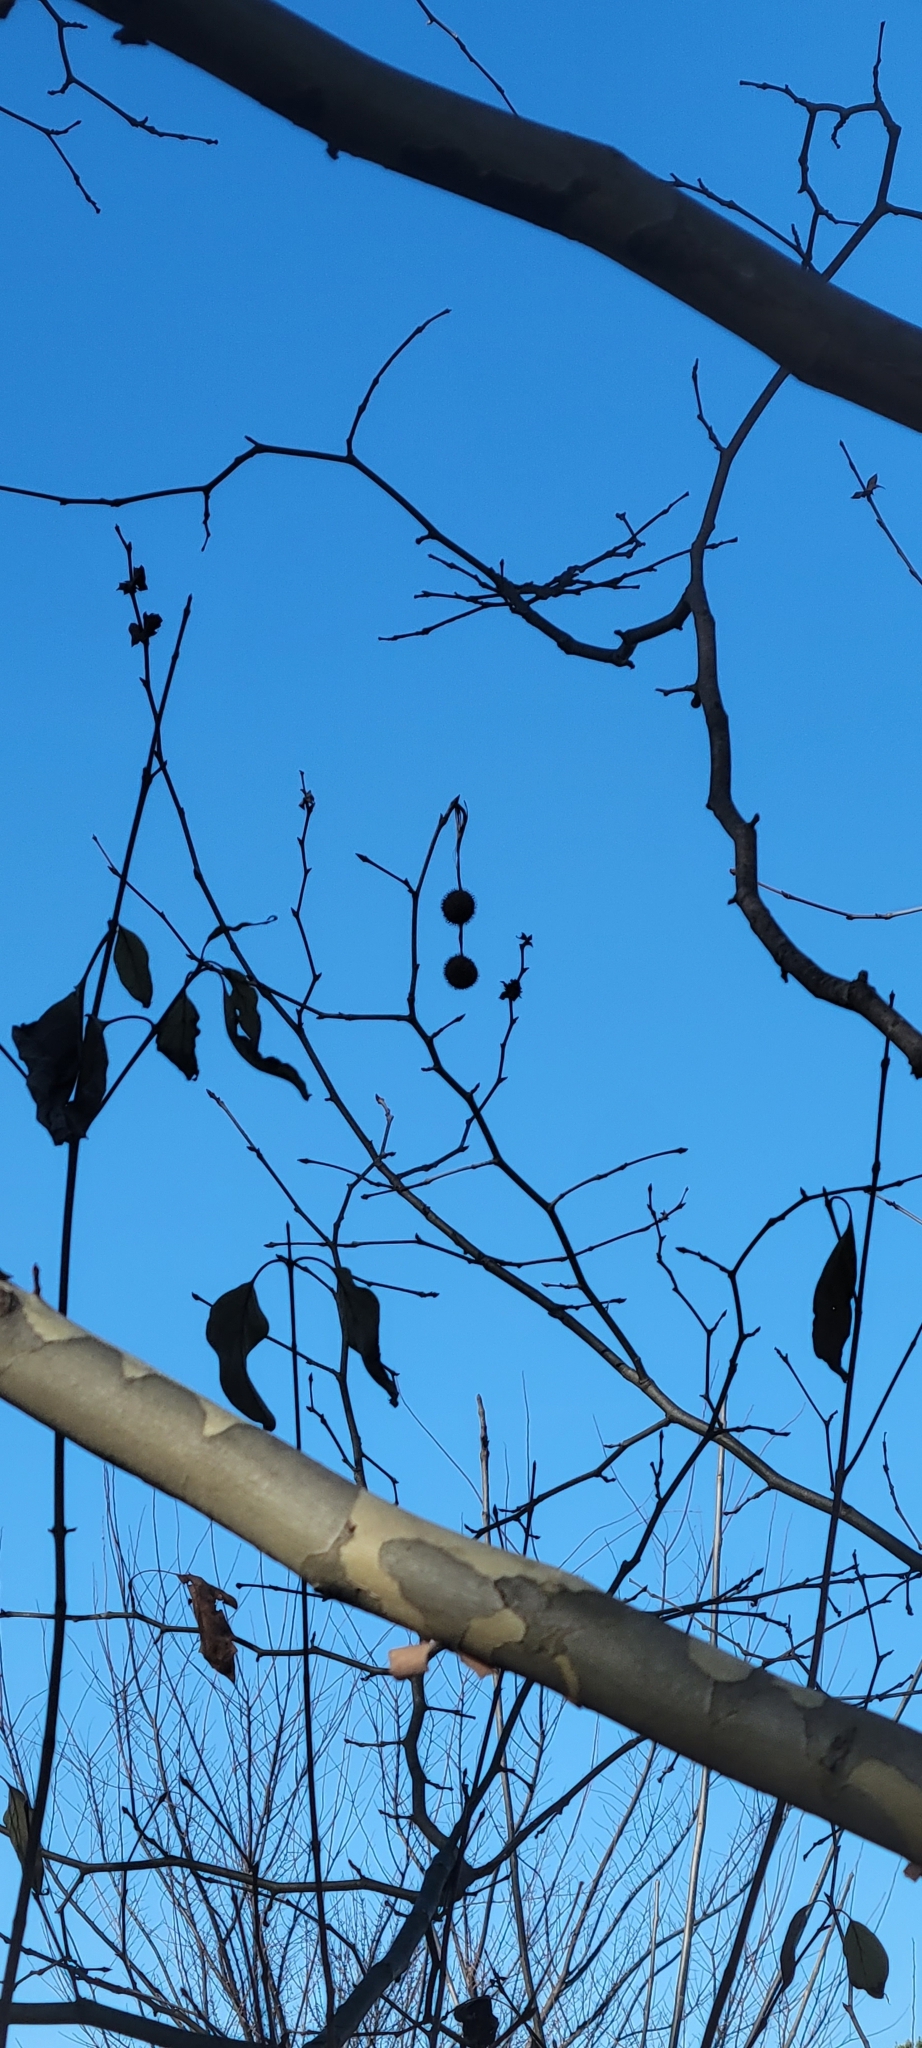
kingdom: Plantae
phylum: Tracheophyta
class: Magnoliopsida
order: Proteales
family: Platanaceae
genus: Platanus
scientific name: Platanus hispanica
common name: London plane
